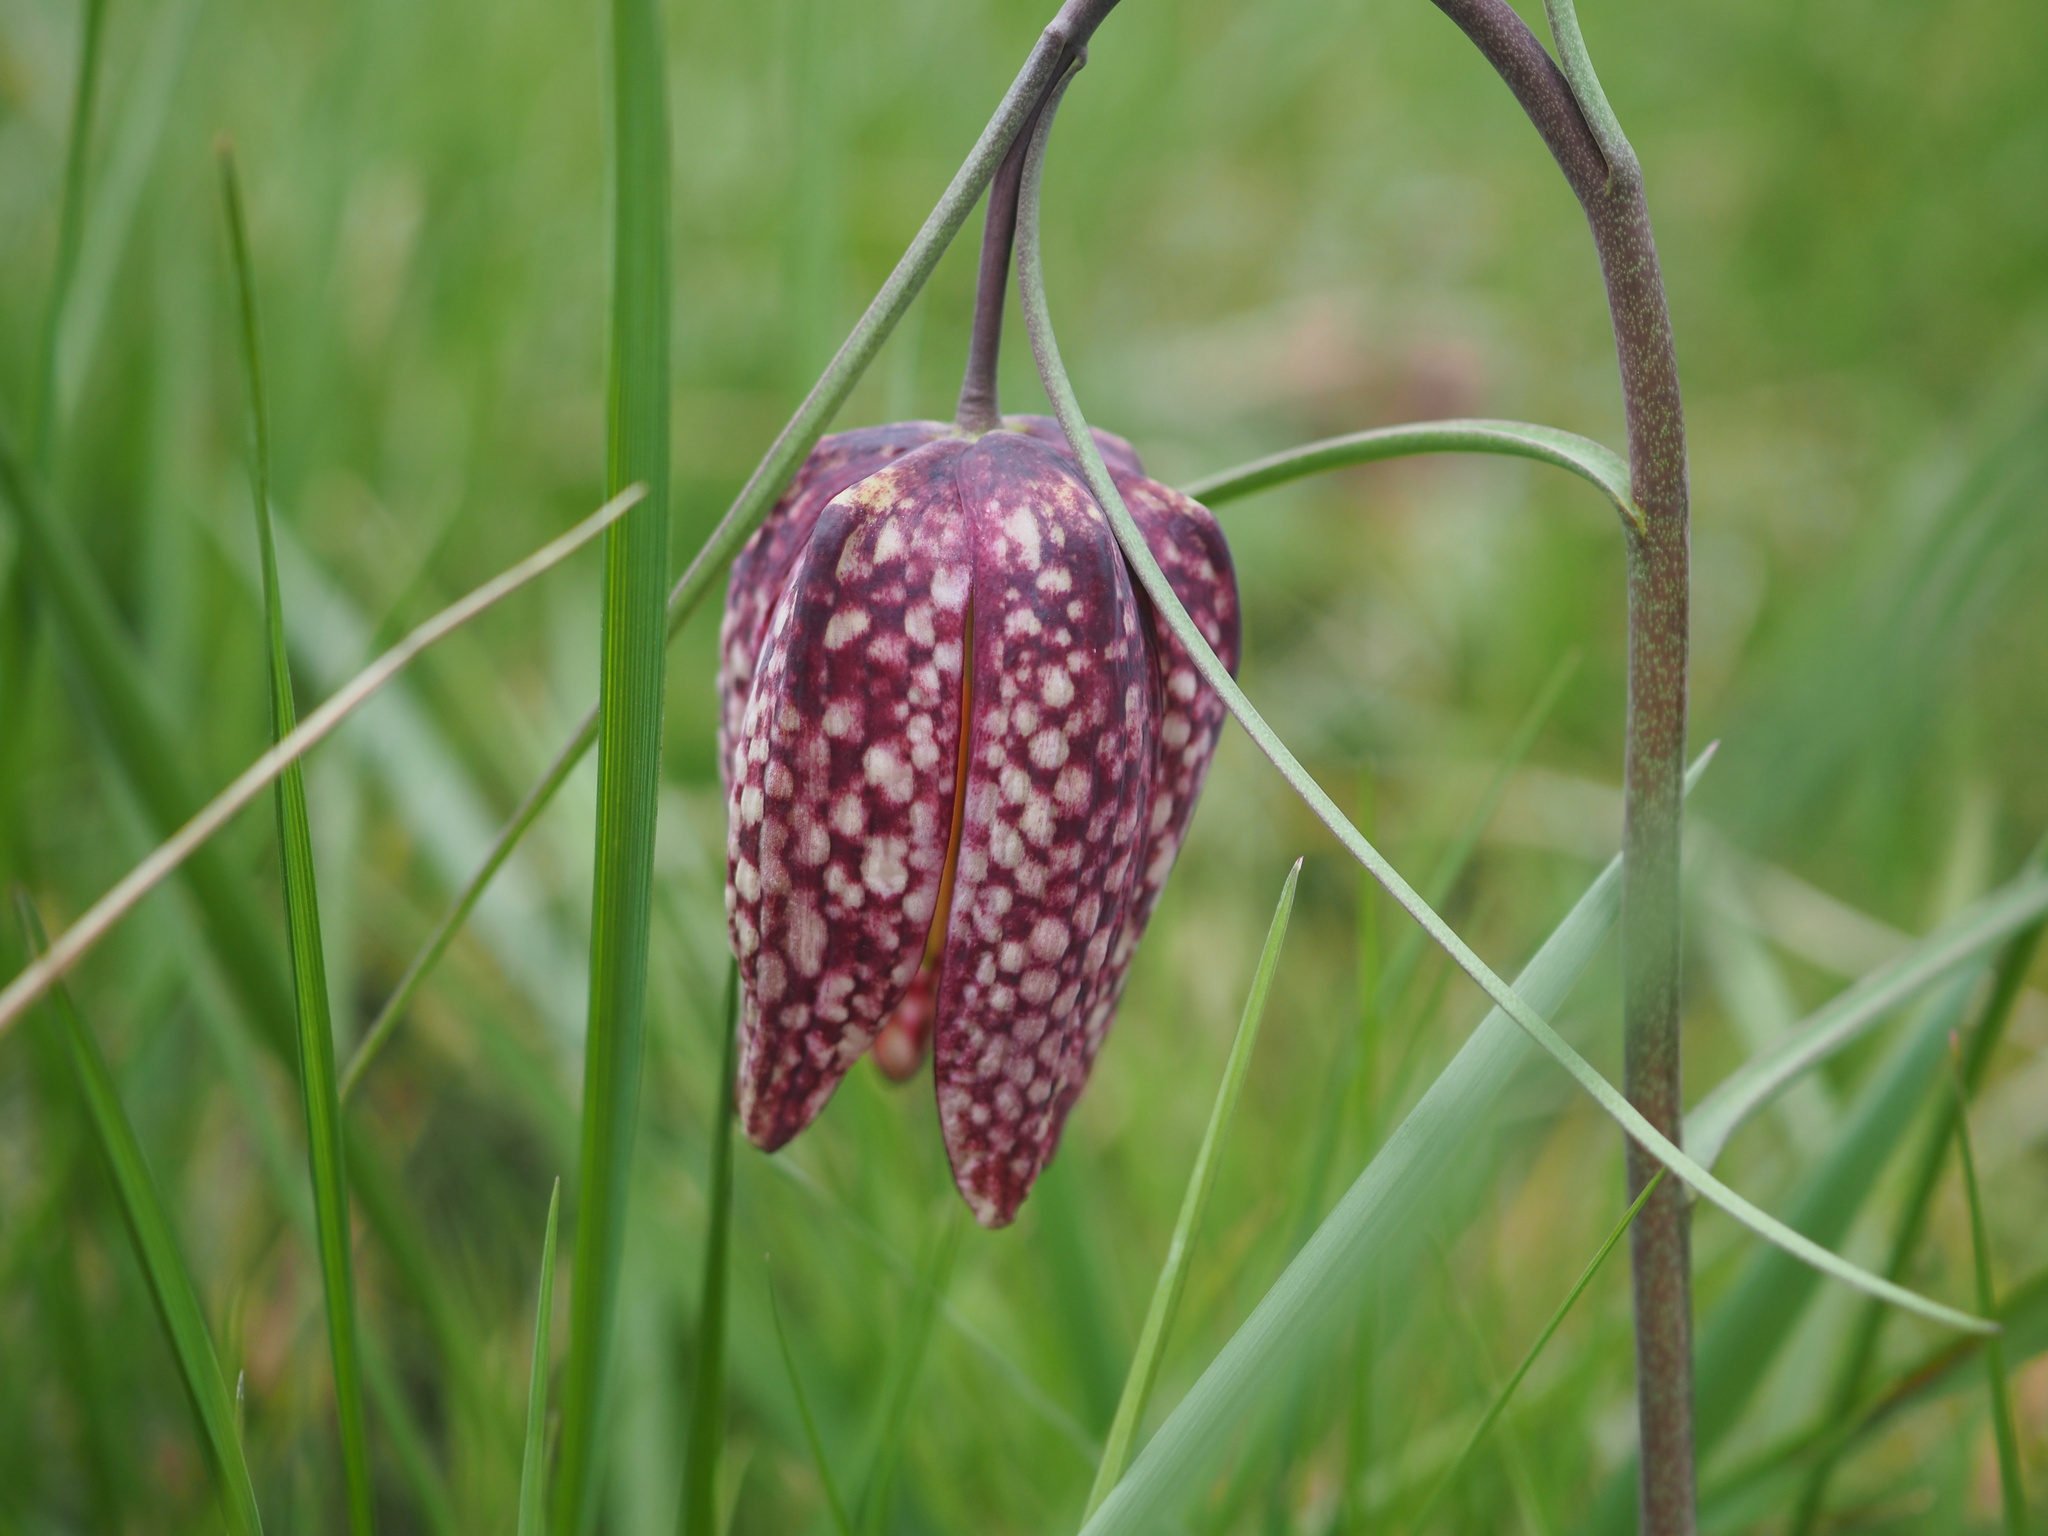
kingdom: Plantae
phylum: Tracheophyta
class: Liliopsida
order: Liliales
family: Liliaceae
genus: Fritillaria
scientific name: Fritillaria meleagris
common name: Fritillary
